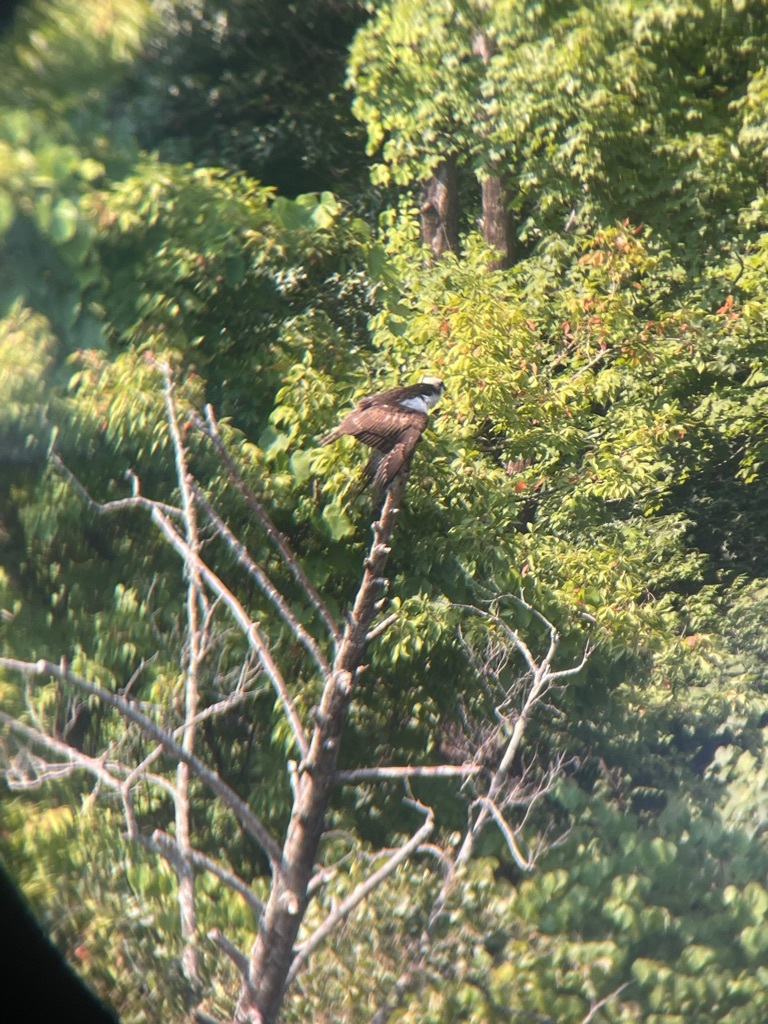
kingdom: Animalia
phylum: Chordata
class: Aves
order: Accipitriformes
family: Pandionidae
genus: Pandion
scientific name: Pandion haliaetus
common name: Osprey
